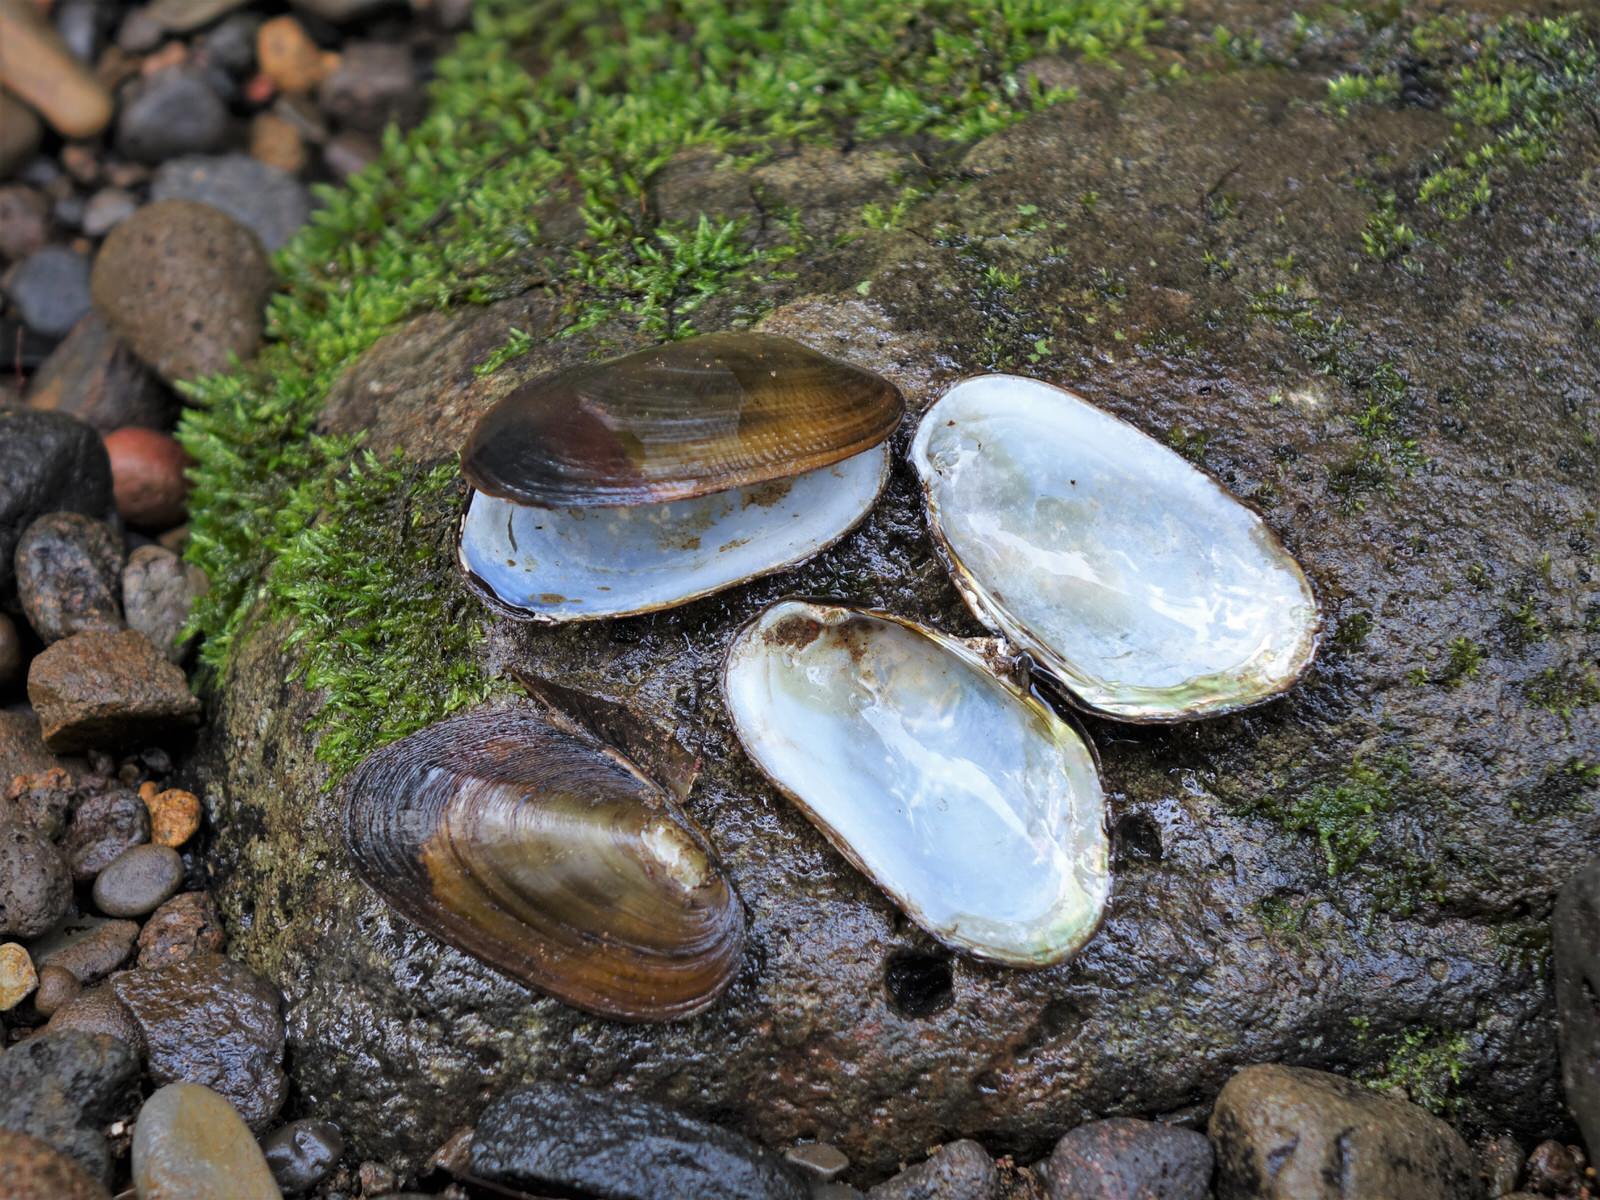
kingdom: Animalia
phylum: Mollusca
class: Bivalvia
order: Unionida
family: Hyriidae
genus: Echyridella
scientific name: Echyridella menziesii
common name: New zealand freshwater mussel
